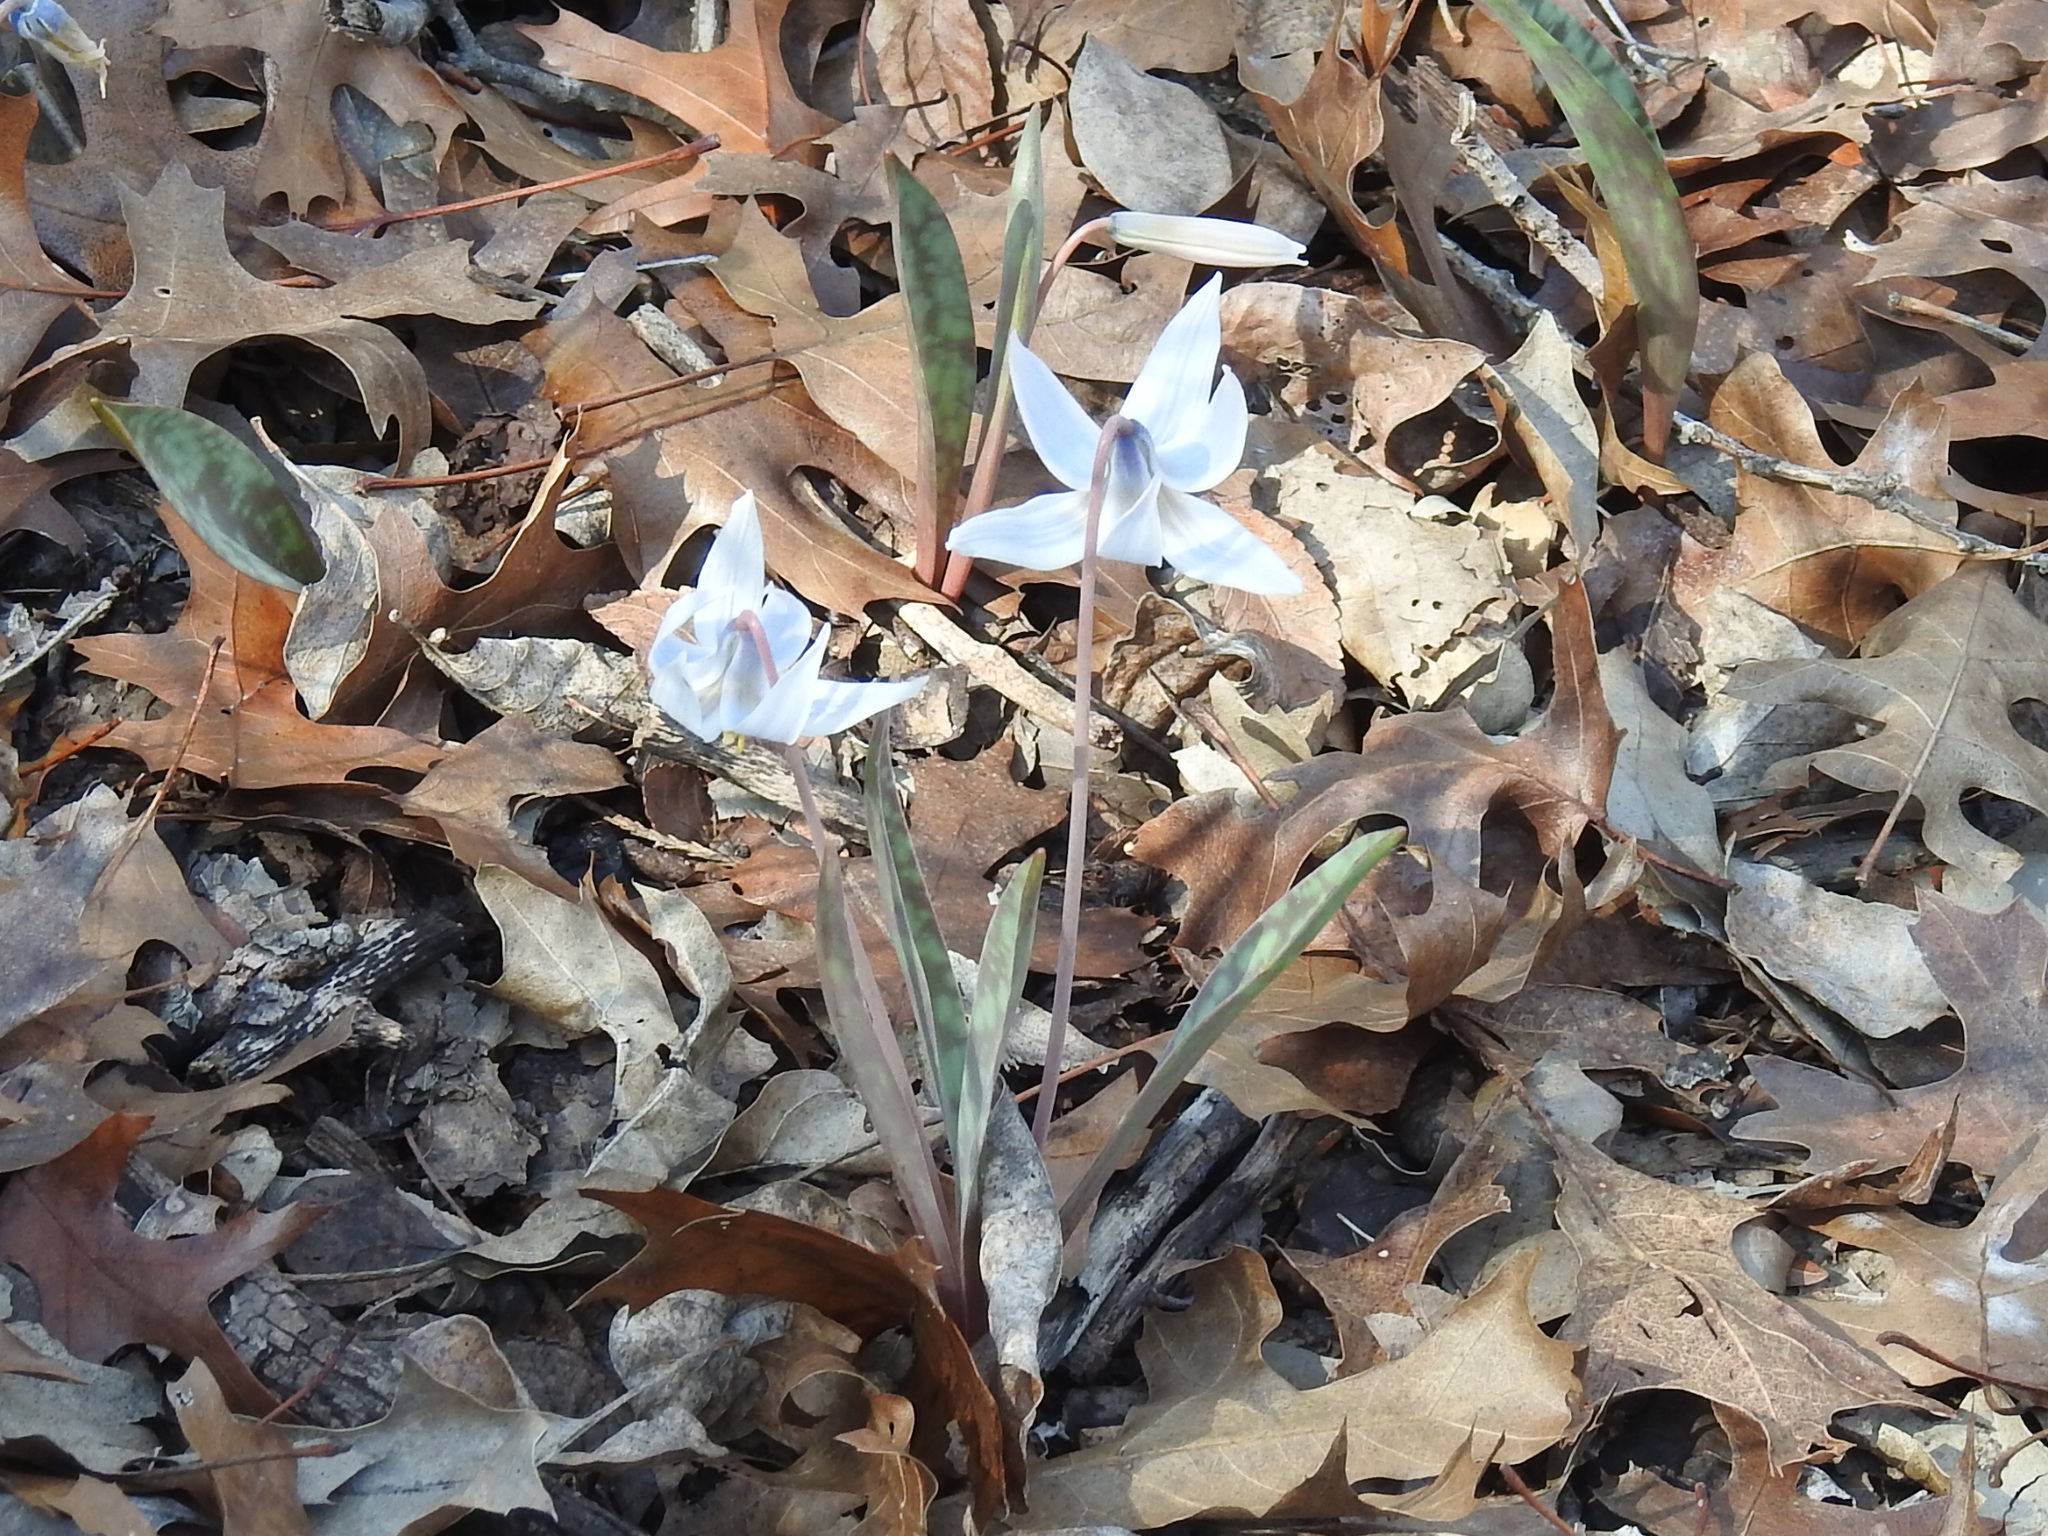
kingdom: Plantae
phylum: Tracheophyta
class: Liliopsida
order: Liliales
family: Liliaceae
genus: Erythronium
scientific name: Erythronium albidum
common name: White trout-lily
